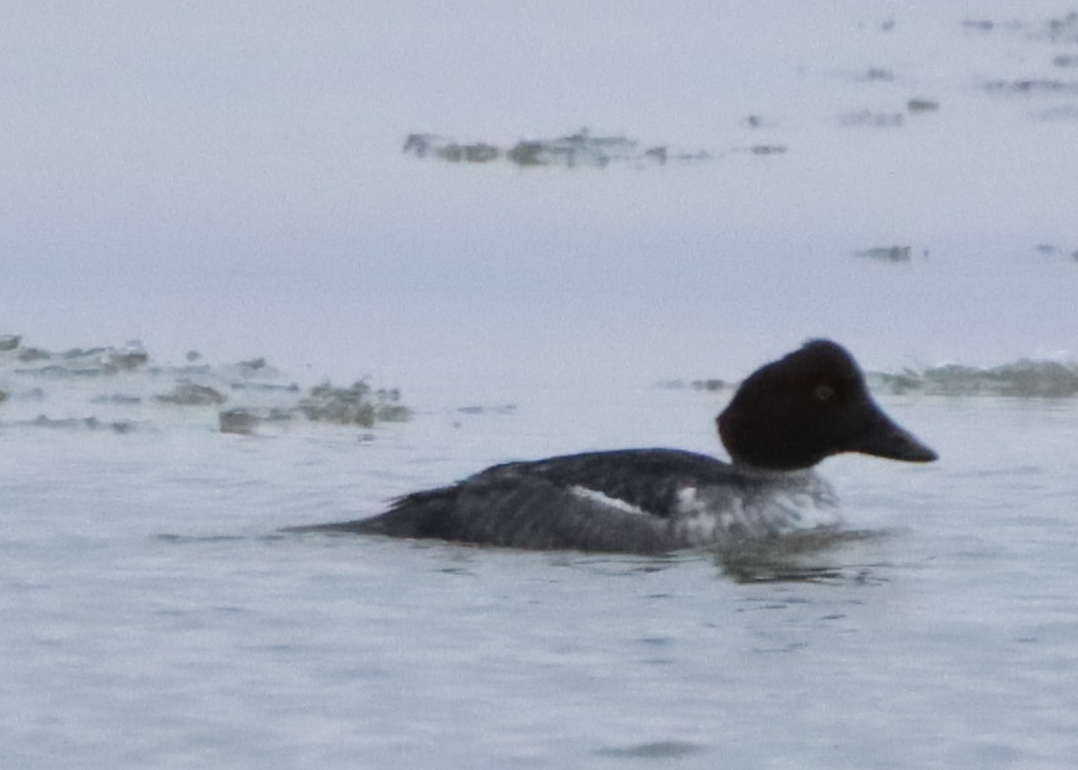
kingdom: Animalia
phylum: Chordata
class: Aves
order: Anseriformes
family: Anatidae
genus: Bucephala
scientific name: Bucephala clangula
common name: Common goldeneye
